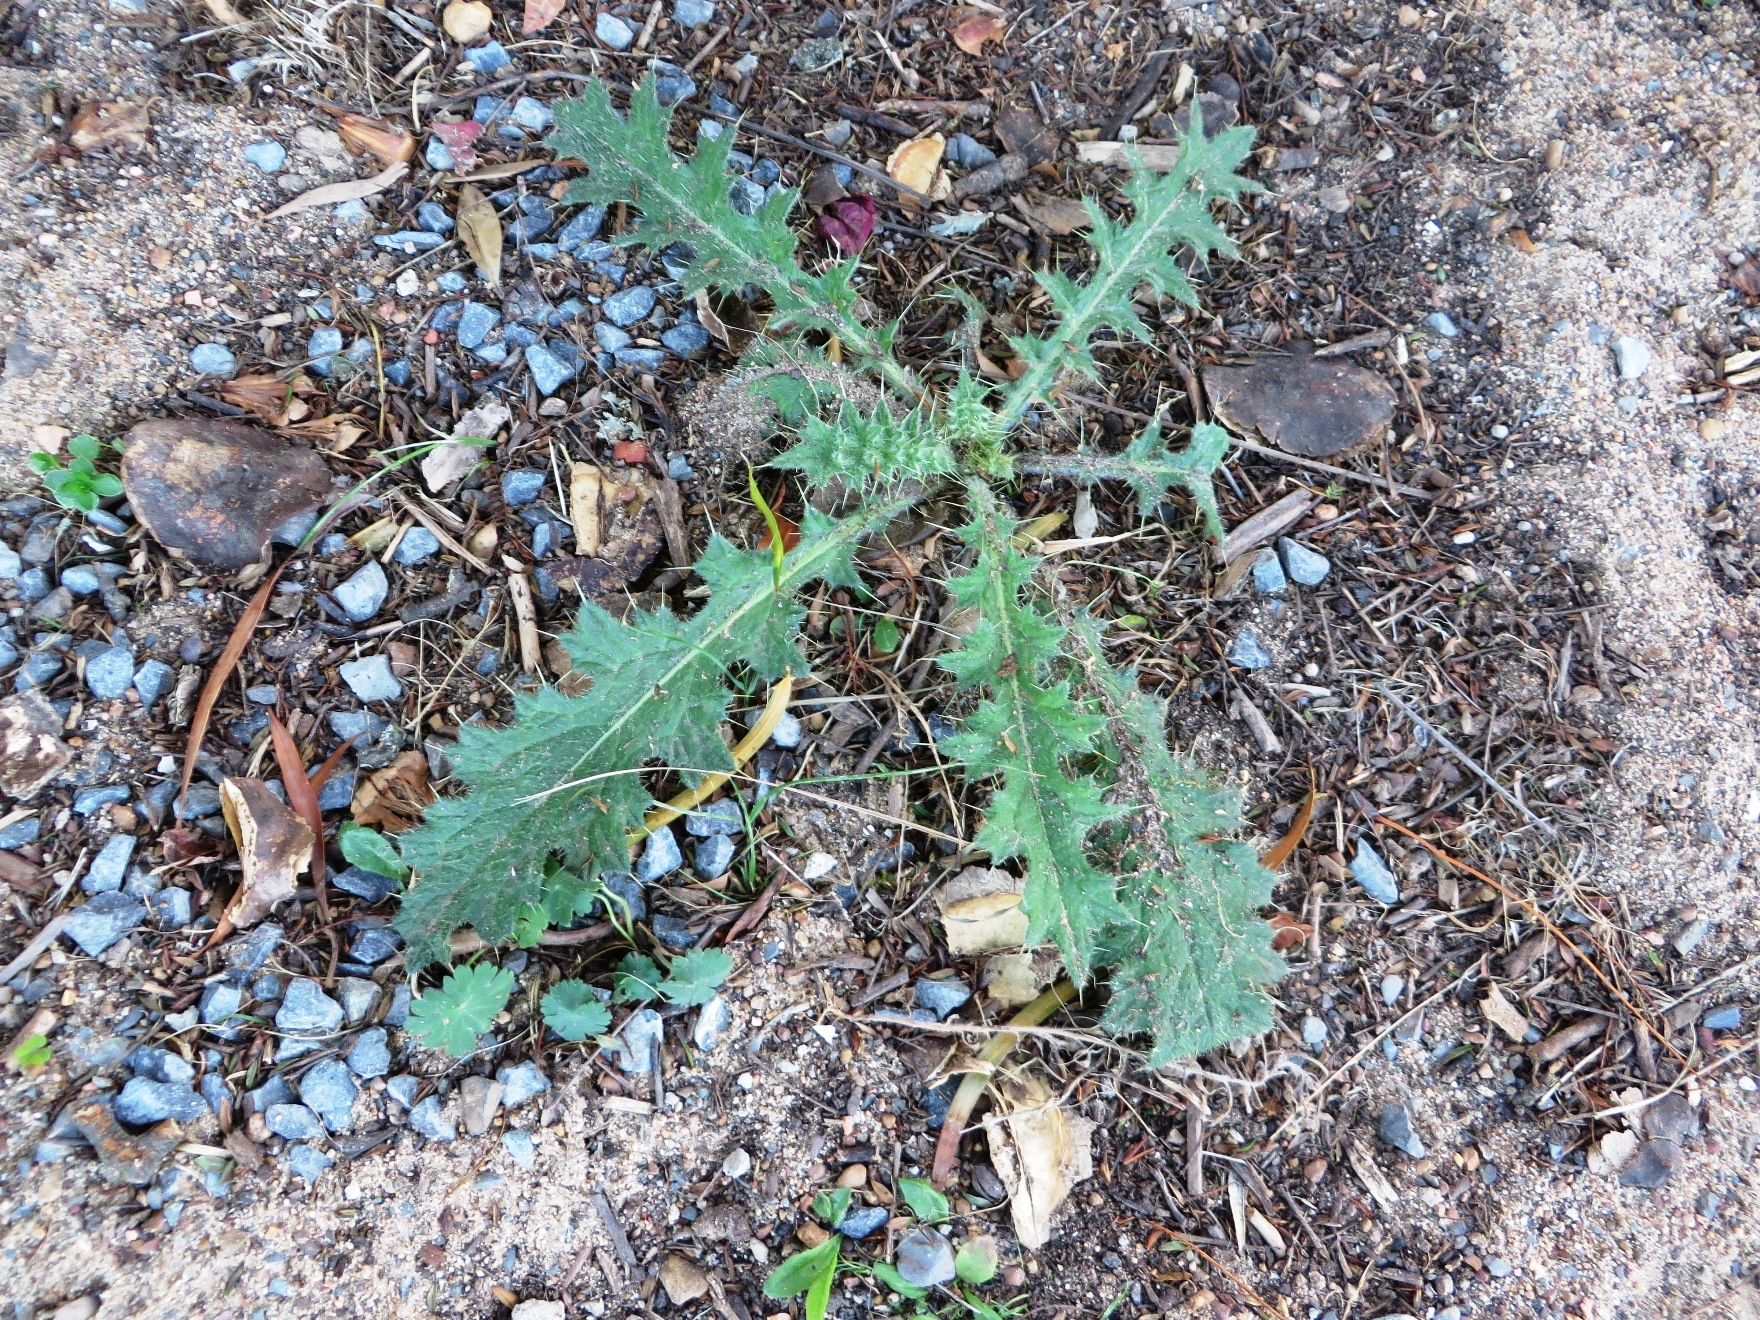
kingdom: Plantae
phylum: Tracheophyta
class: Magnoliopsida
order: Asterales
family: Asteraceae
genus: Cirsium
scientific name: Cirsium vulgare
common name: Bull thistle
